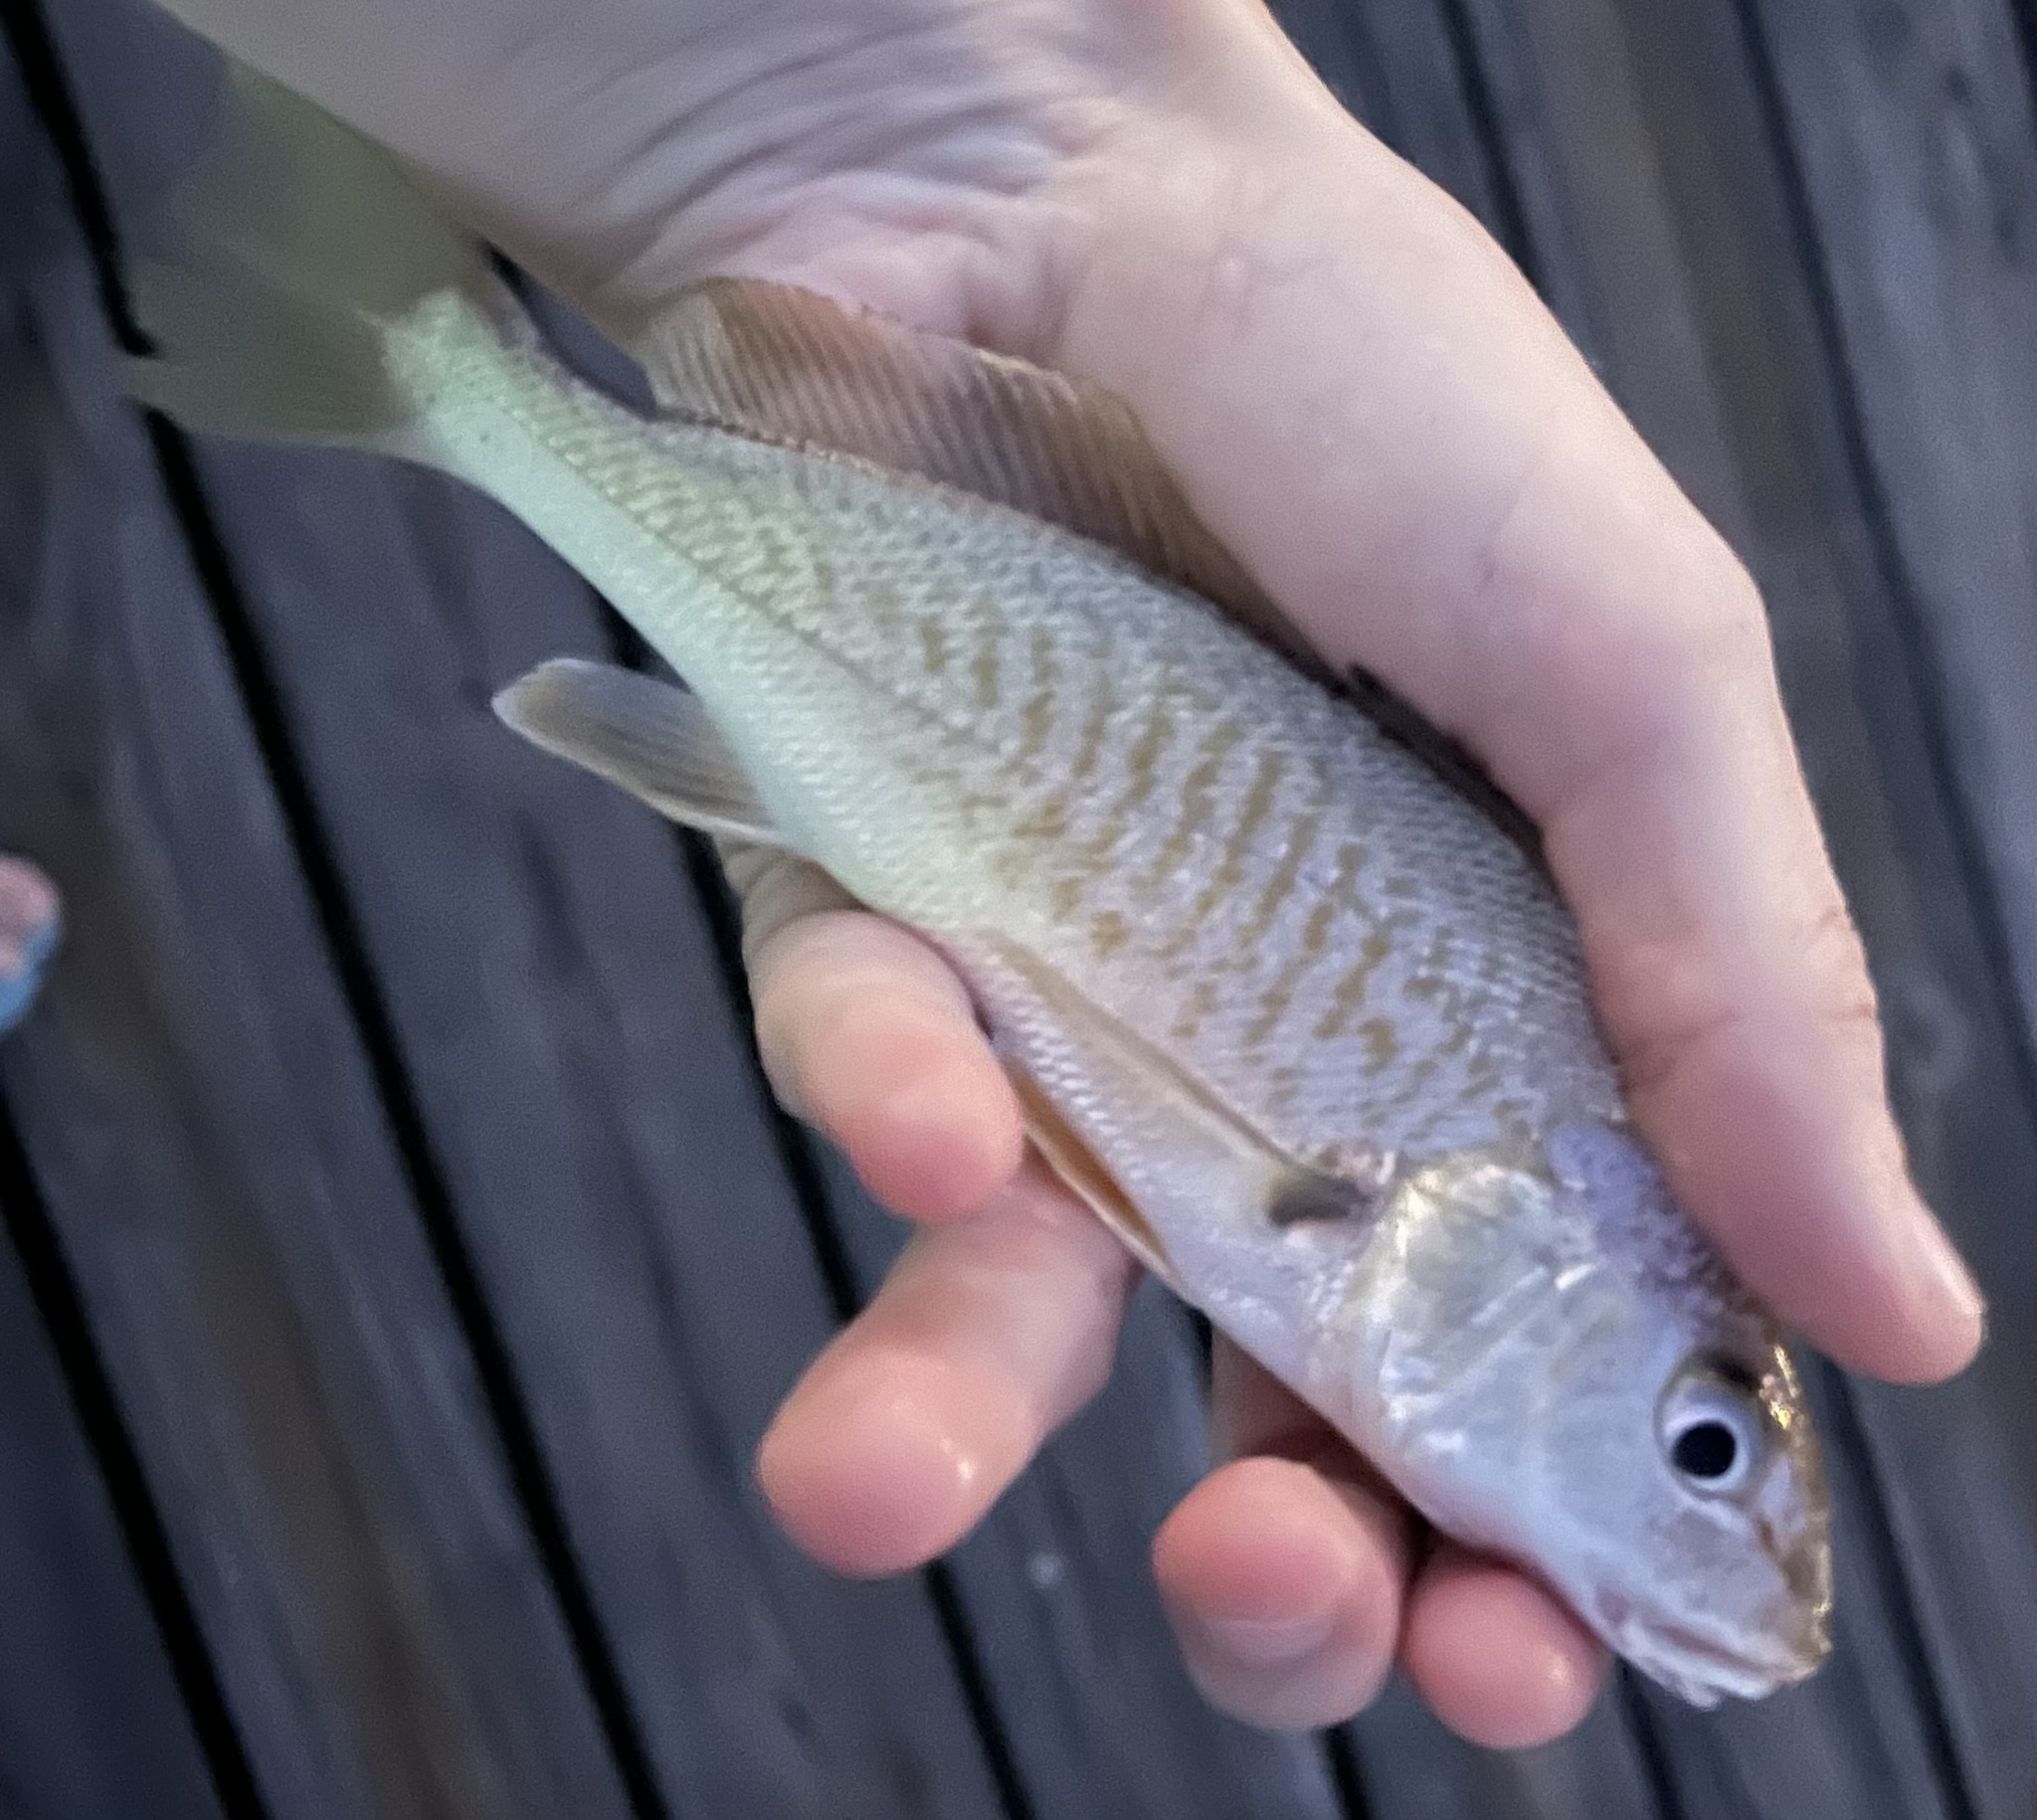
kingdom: Animalia
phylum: Chordata
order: Perciformes
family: Sciaenidae
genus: Micropogonias
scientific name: Micropogonias undulatus
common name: Atlantic croaker
